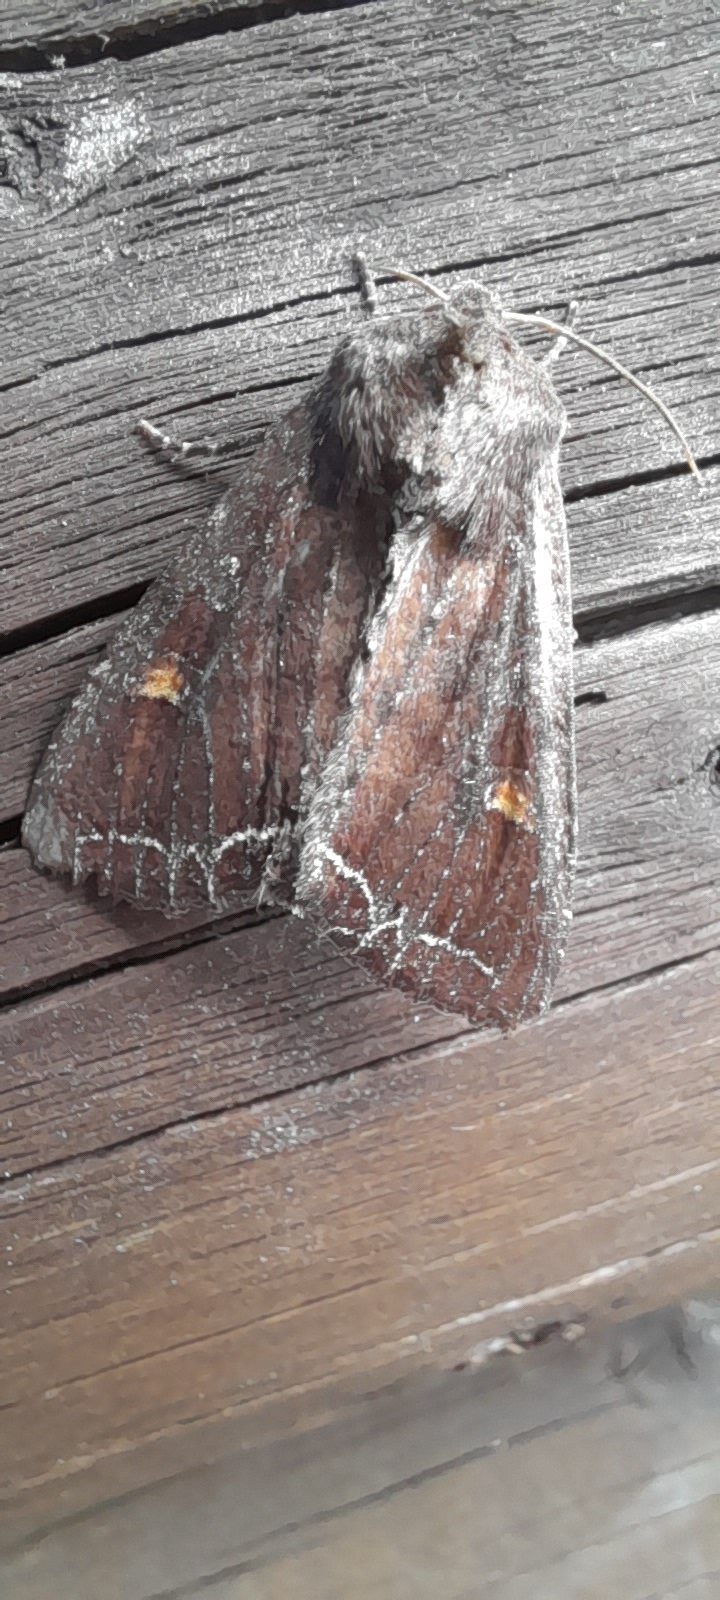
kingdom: Animalia
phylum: Arthropoda
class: Insecta
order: Lepidoptera
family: Noctuidae
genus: Lacanobia
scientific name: Lacanobia oleracea
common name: Bright-line brown-eye
